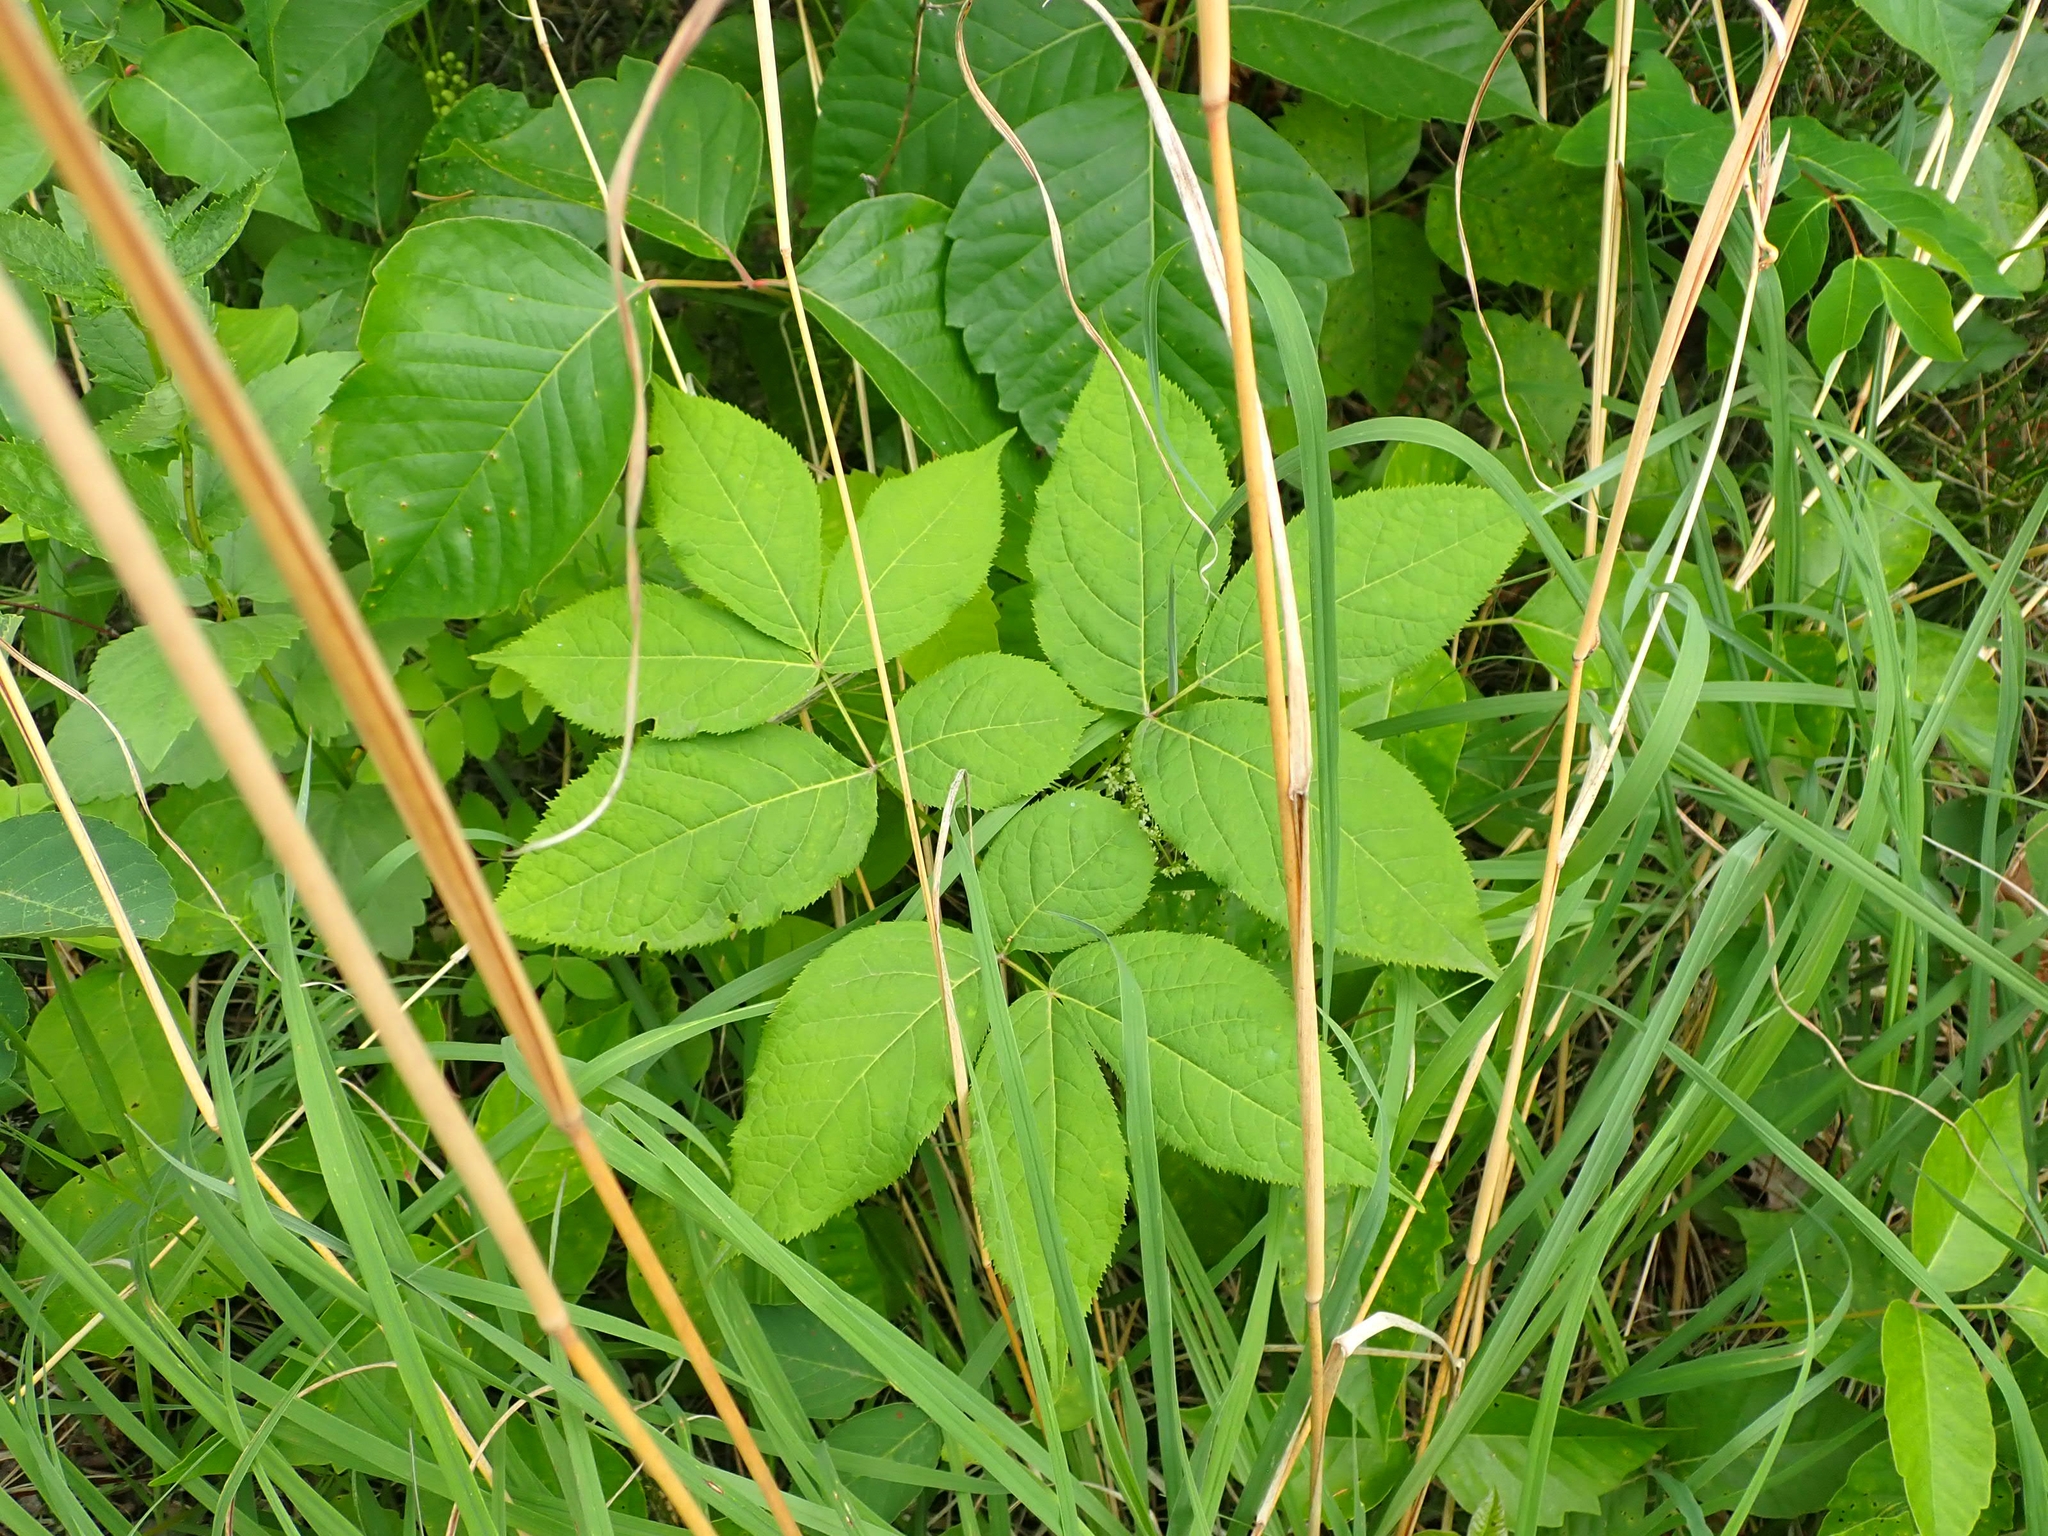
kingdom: Plantae
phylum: Tracheophyta
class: Magnoliopsida
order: Apiales
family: Araliaceae
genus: Aralia
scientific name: Aralia nudicaulis
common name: Wild sarsaparilla
